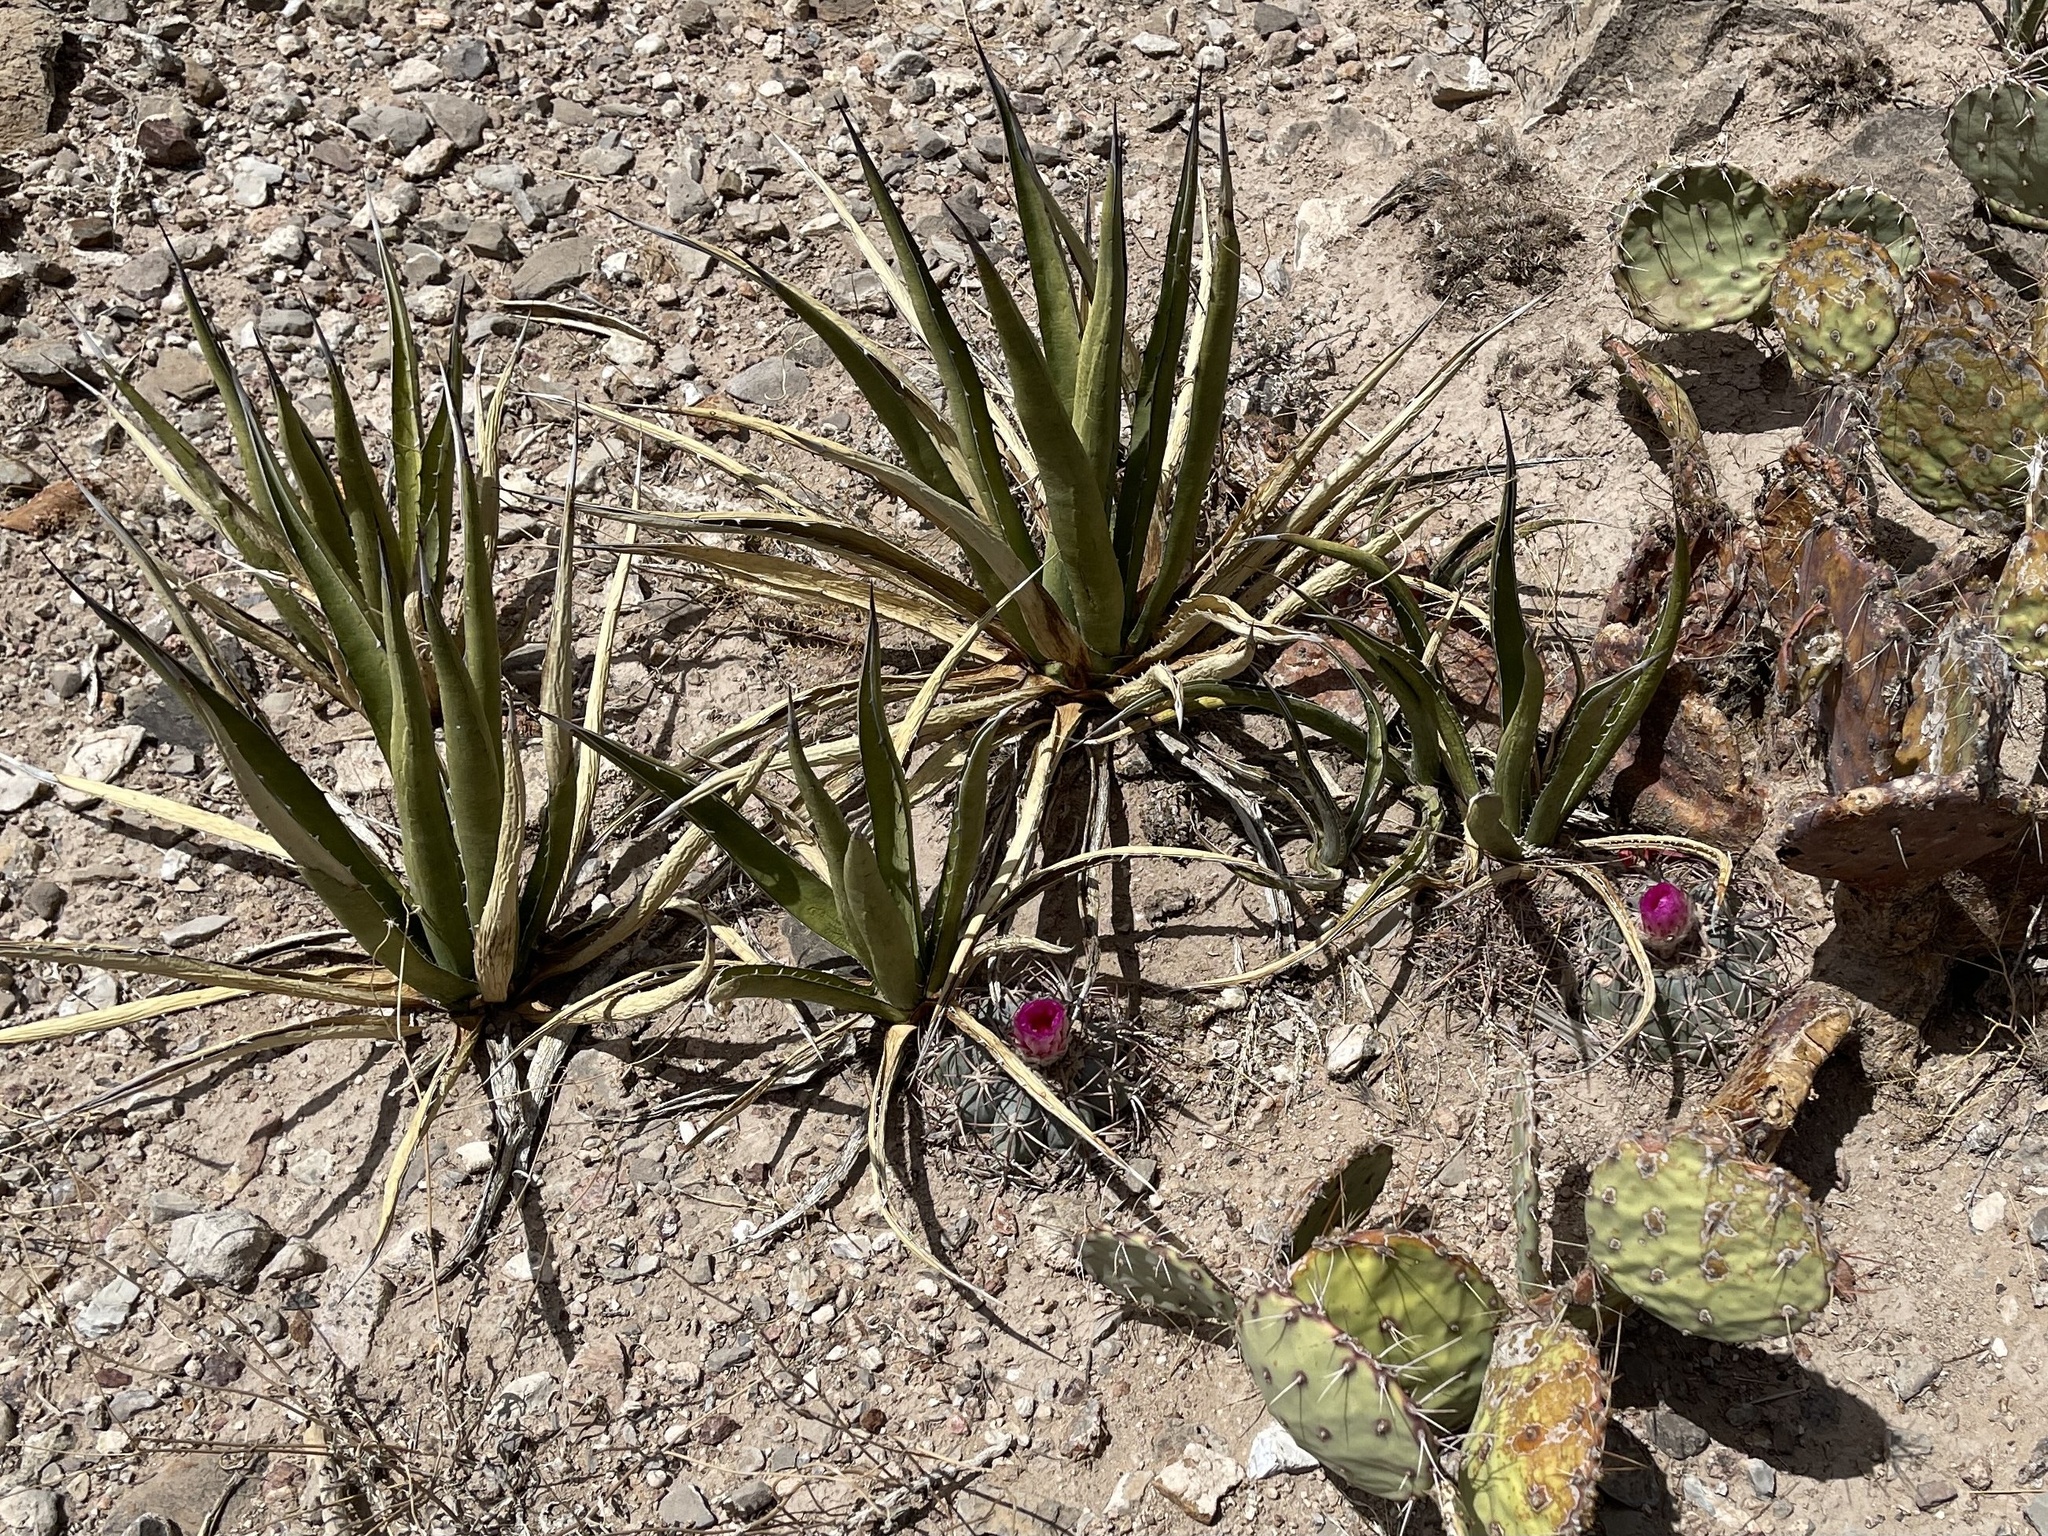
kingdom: Plantae
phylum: Tracheophyta
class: Liliopsida
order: Asparagales
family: Asparagaceae
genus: Agave
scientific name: Agave lechuguilla
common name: Lecheguilla agave
